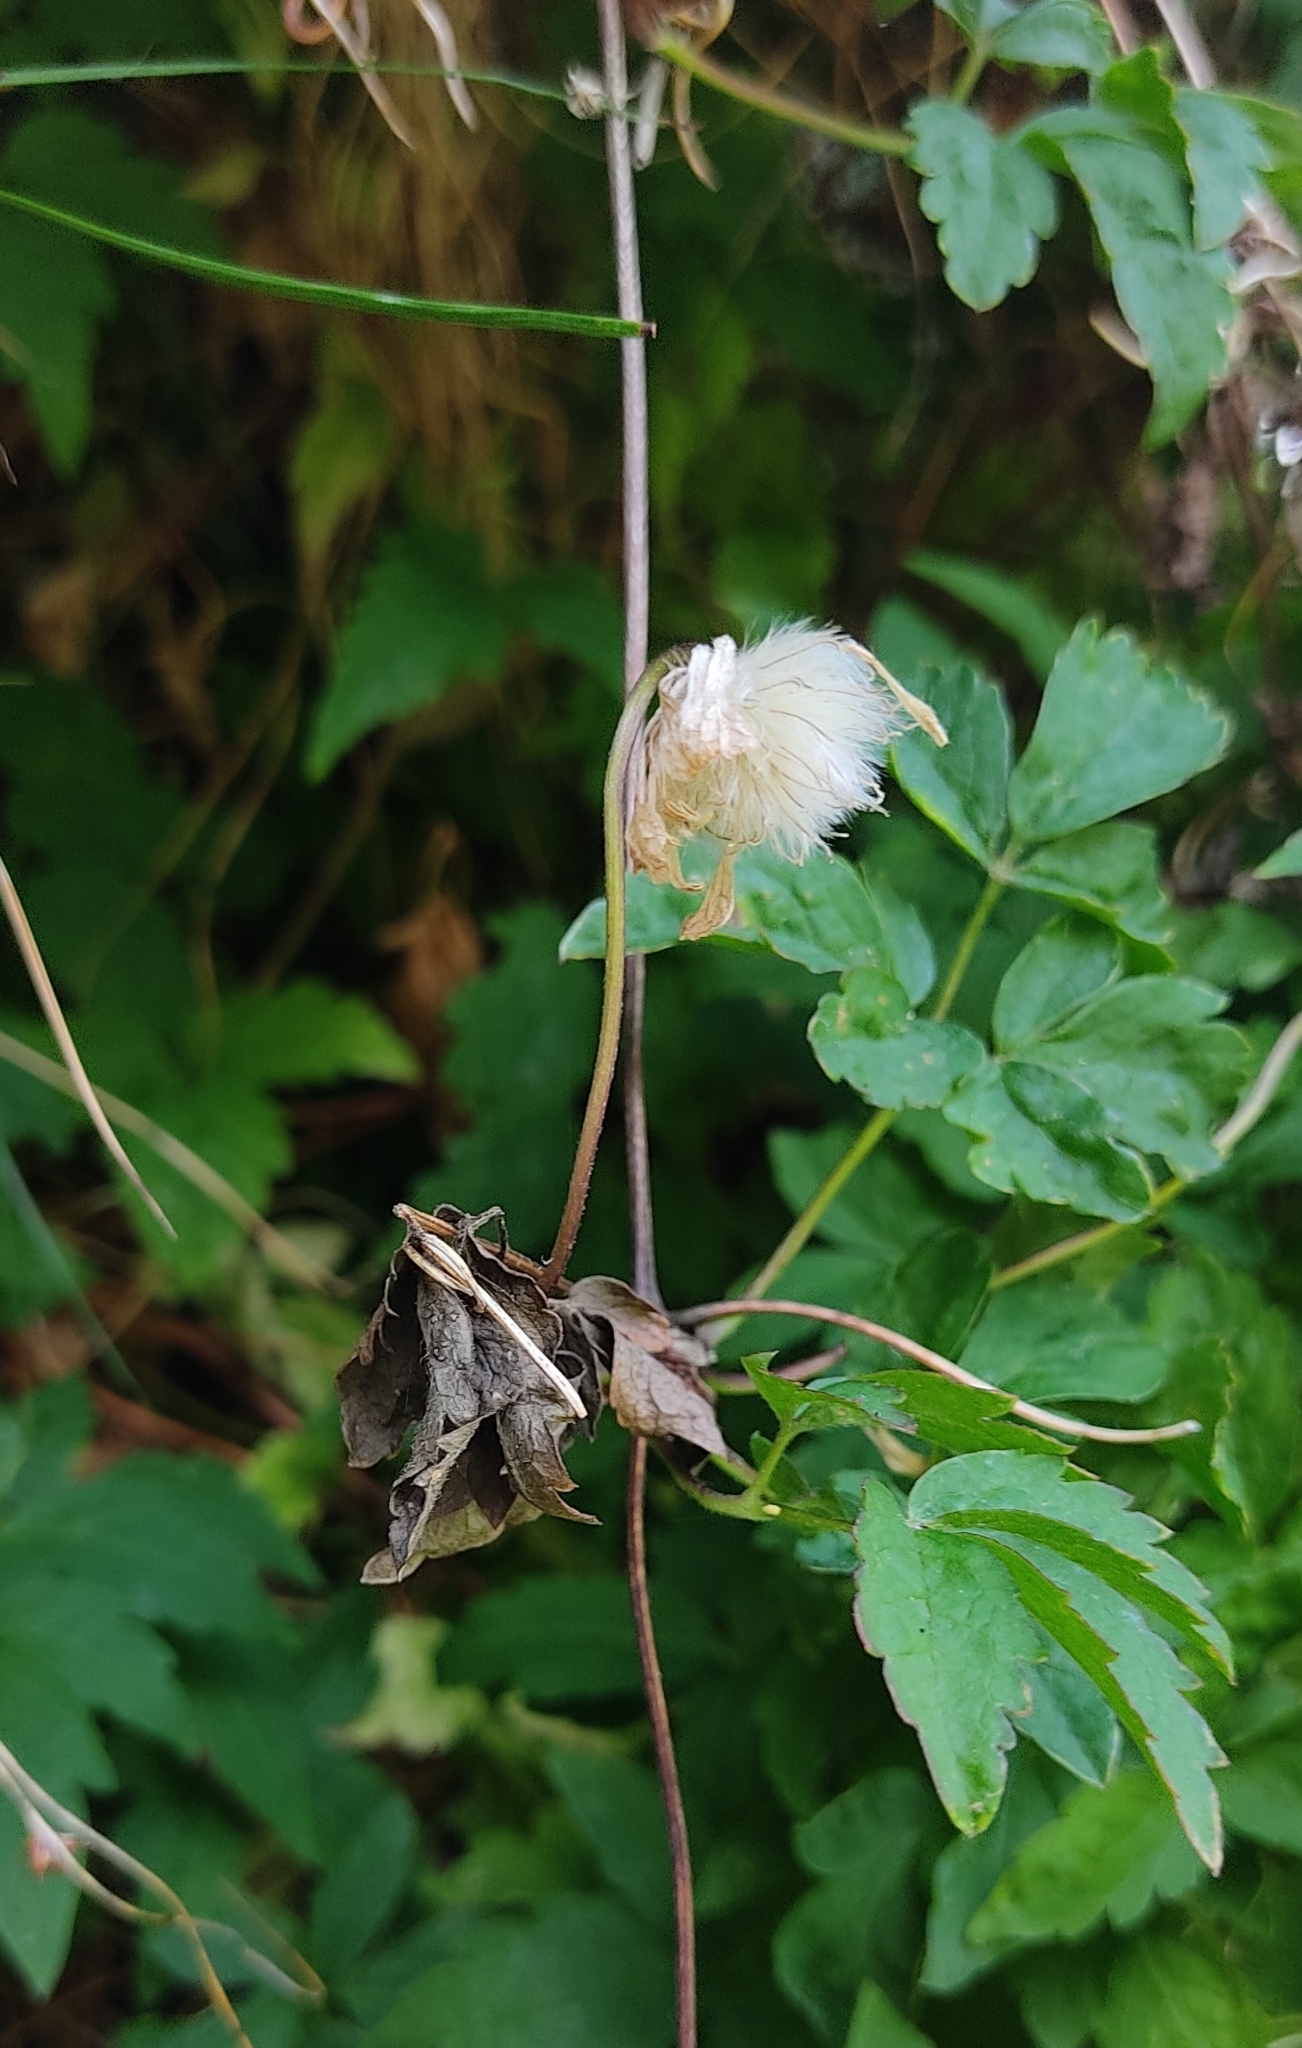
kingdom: Plantae
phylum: Tracheophyta
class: Magnoliopsida
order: Ranunculales
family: Ranunculaceae
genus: Clematis
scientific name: Clematis alpina
